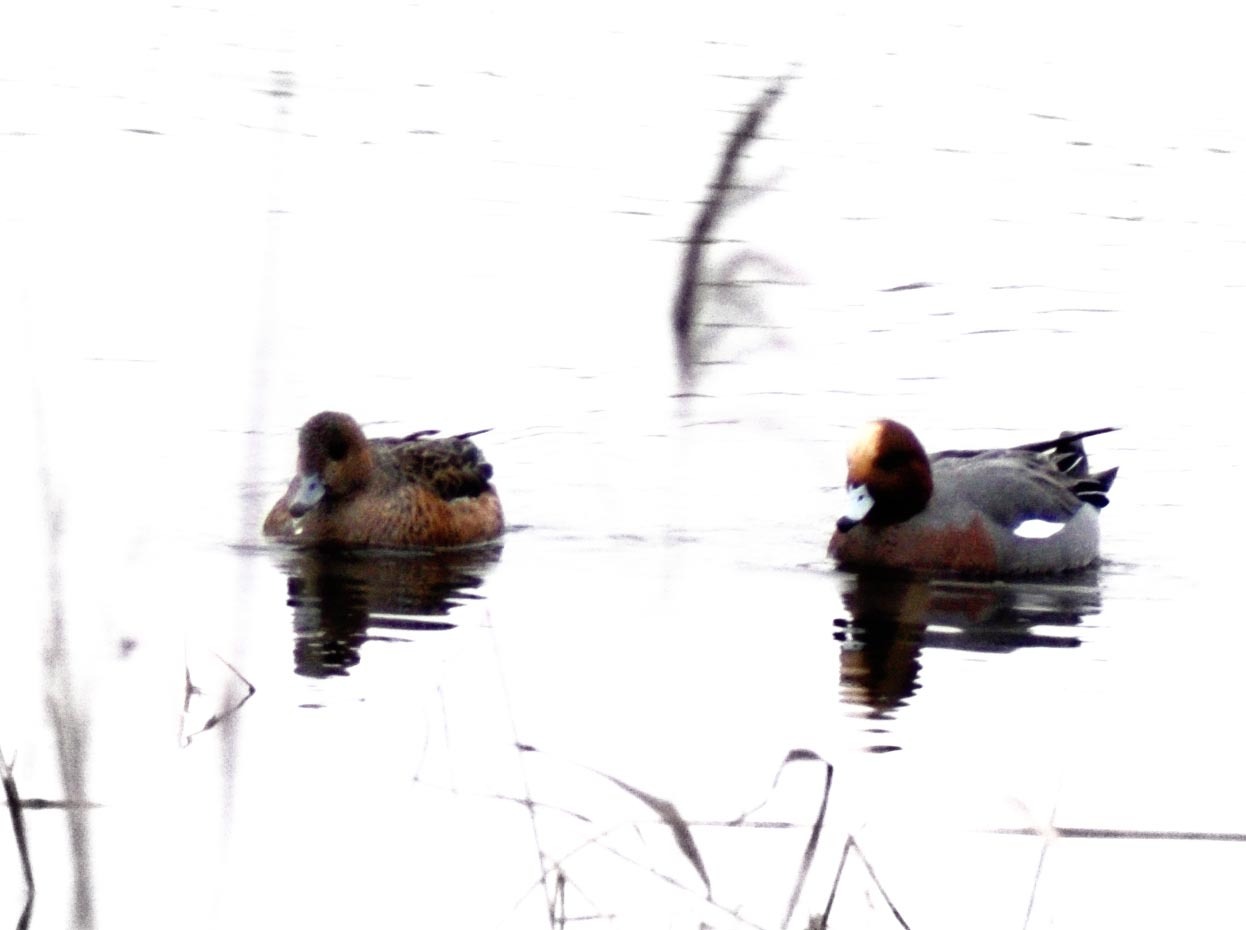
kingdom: Animalia
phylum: Chordata
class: Aves
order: Anseriformes
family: Anatidae
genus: Mareca
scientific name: Mareca penelope
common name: Eurasian wigeon
